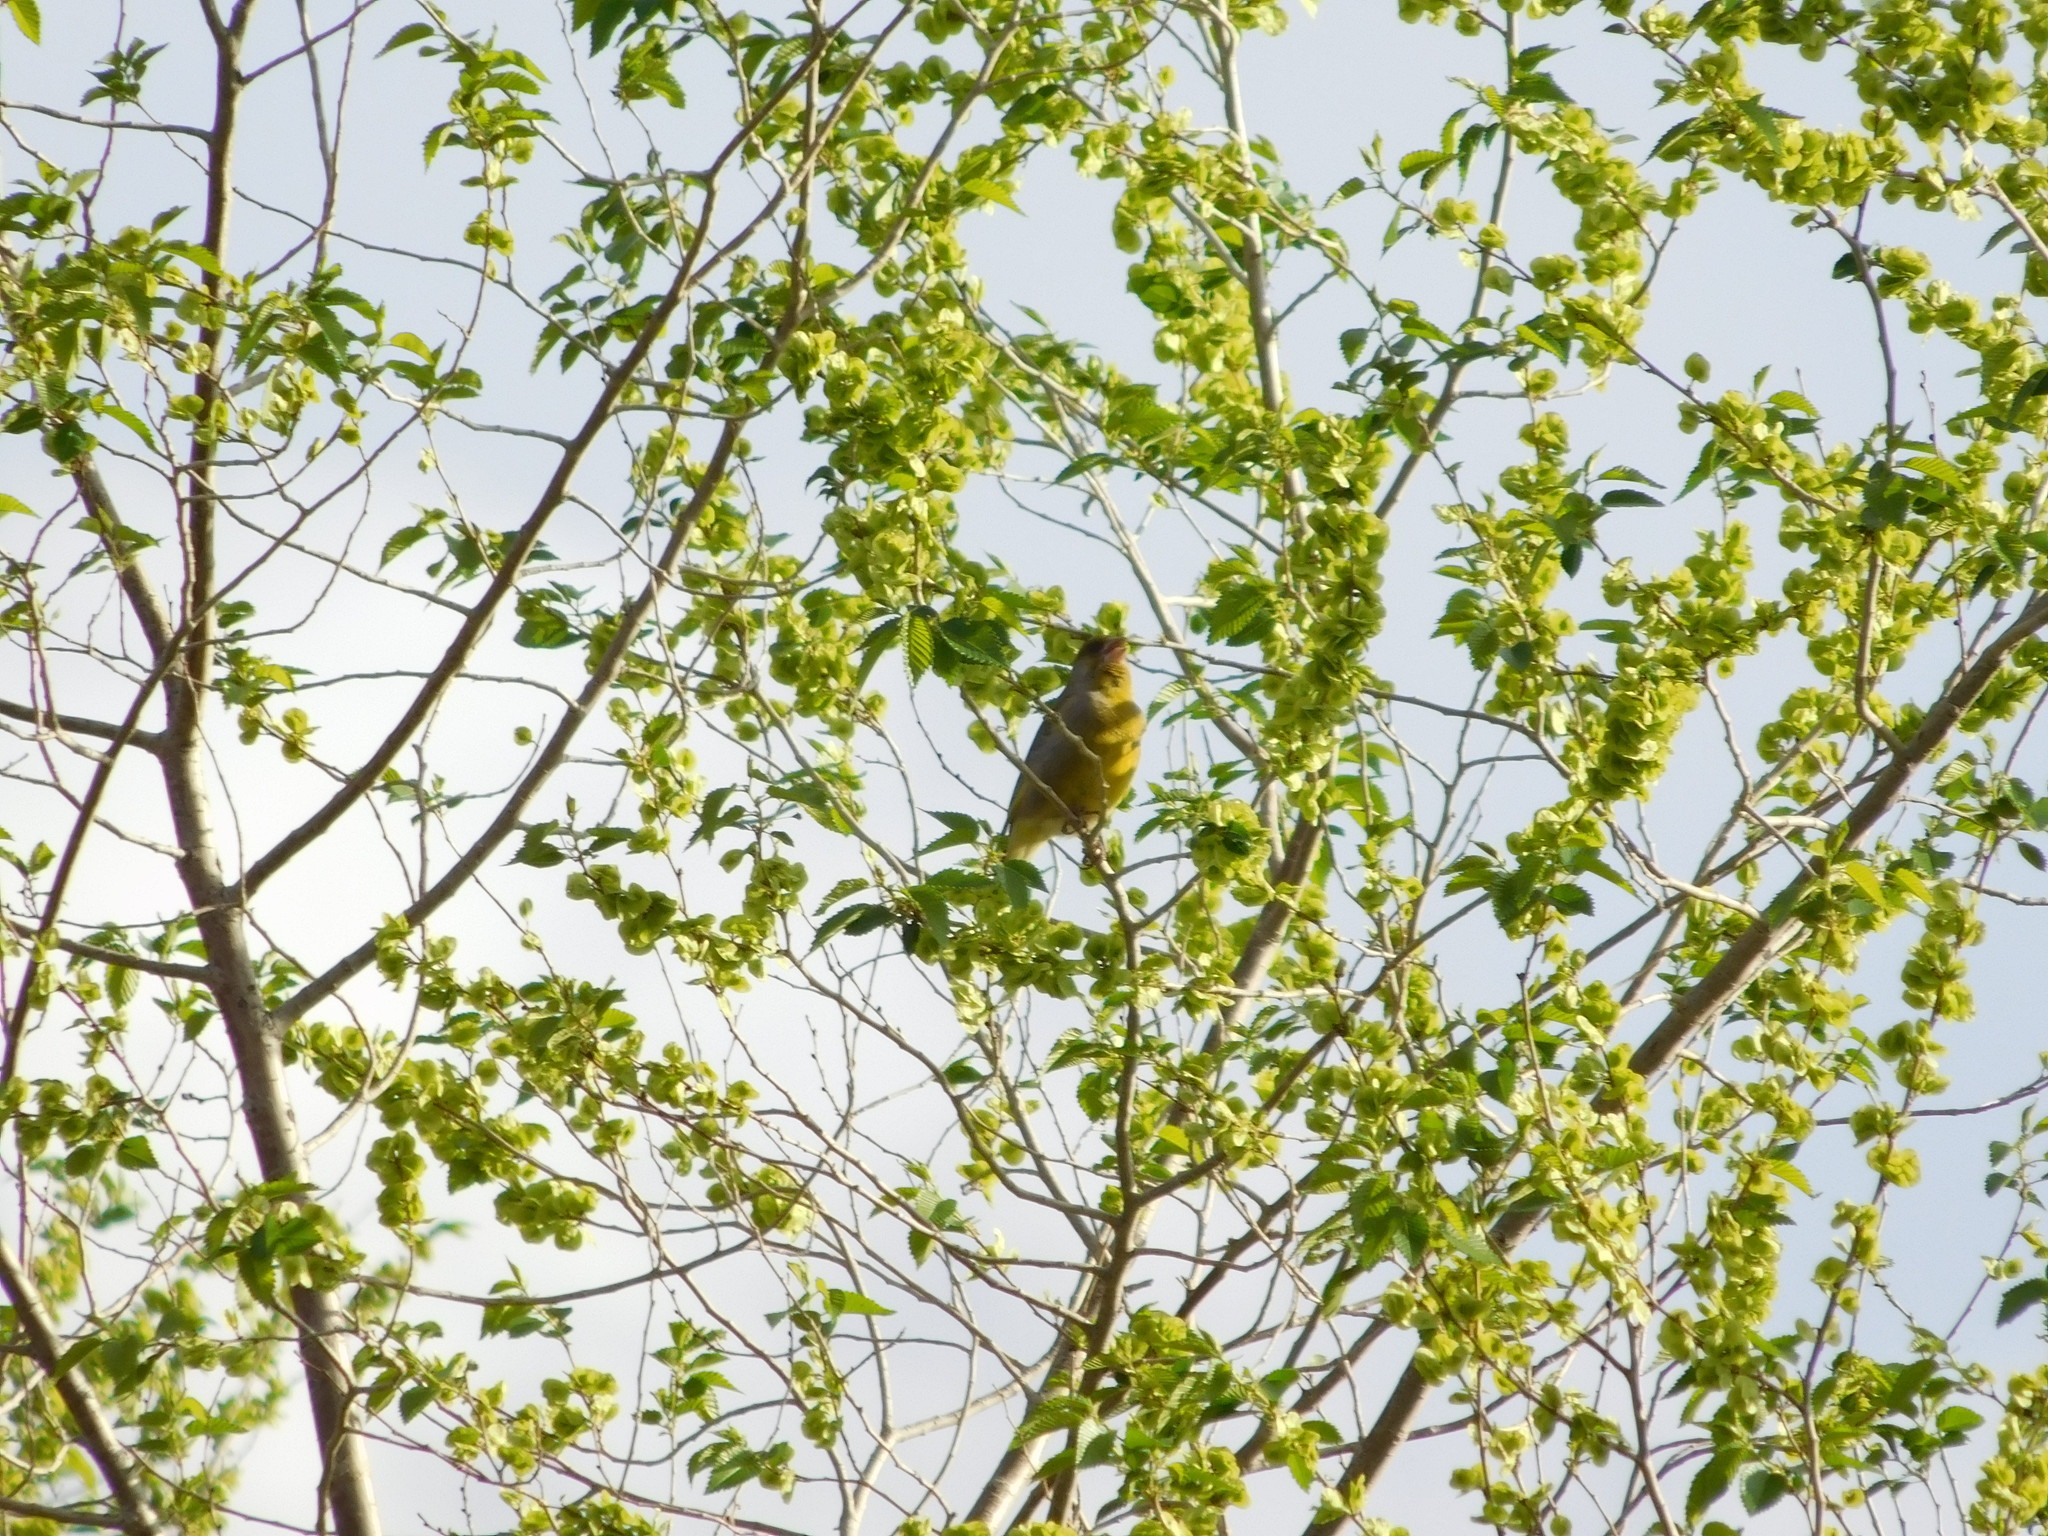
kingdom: Plantae
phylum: Tracheophyta
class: Liliopsida
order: Poales
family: Poaceae
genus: Chloris
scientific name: Chloris chloris
